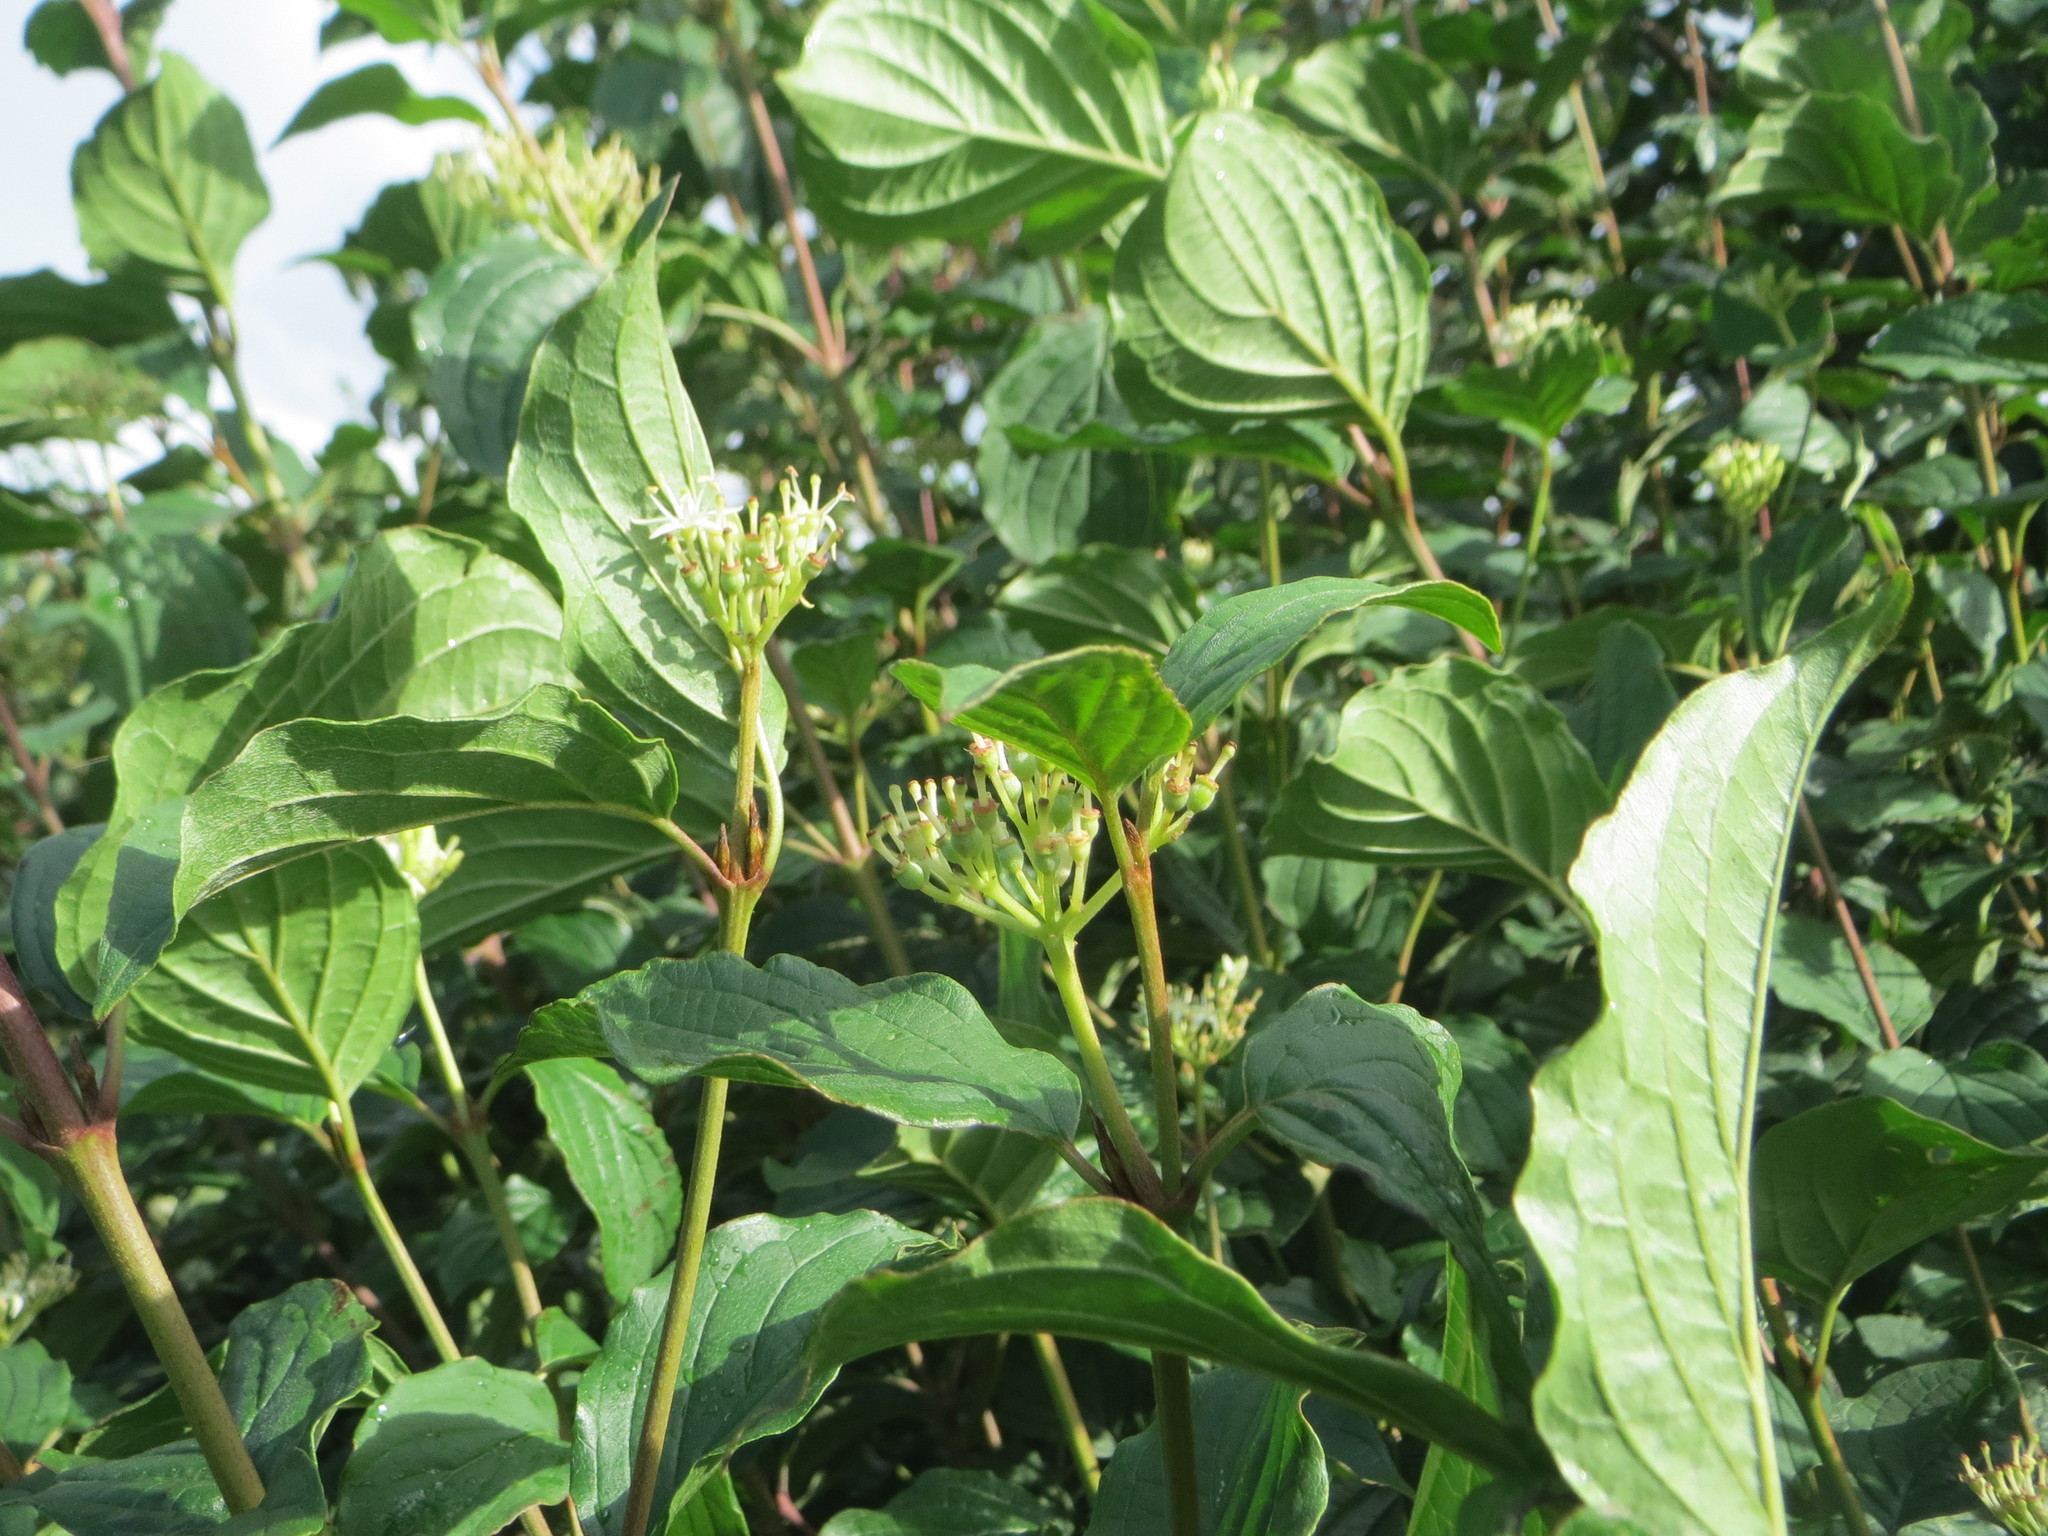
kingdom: Plantae
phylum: Tracheophyta
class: Magnoliopsida
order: Cornales
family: Cornaceae
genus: Cornus
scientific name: Cornus sanguinea
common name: Dogwood
